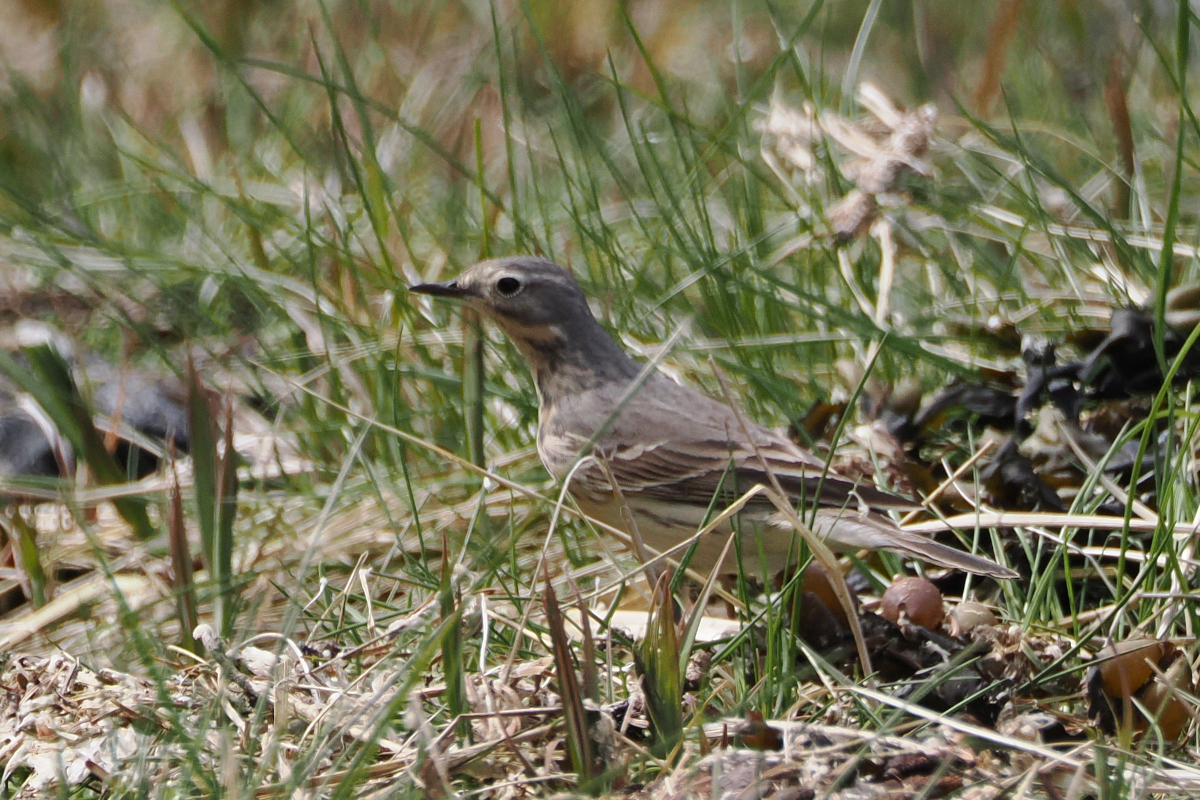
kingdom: Animalia
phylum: Chordata
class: Aves
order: Passeriformes
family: Motacillidae
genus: Anthus
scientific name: Anthus rubescens
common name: Buff-bellied pipit
